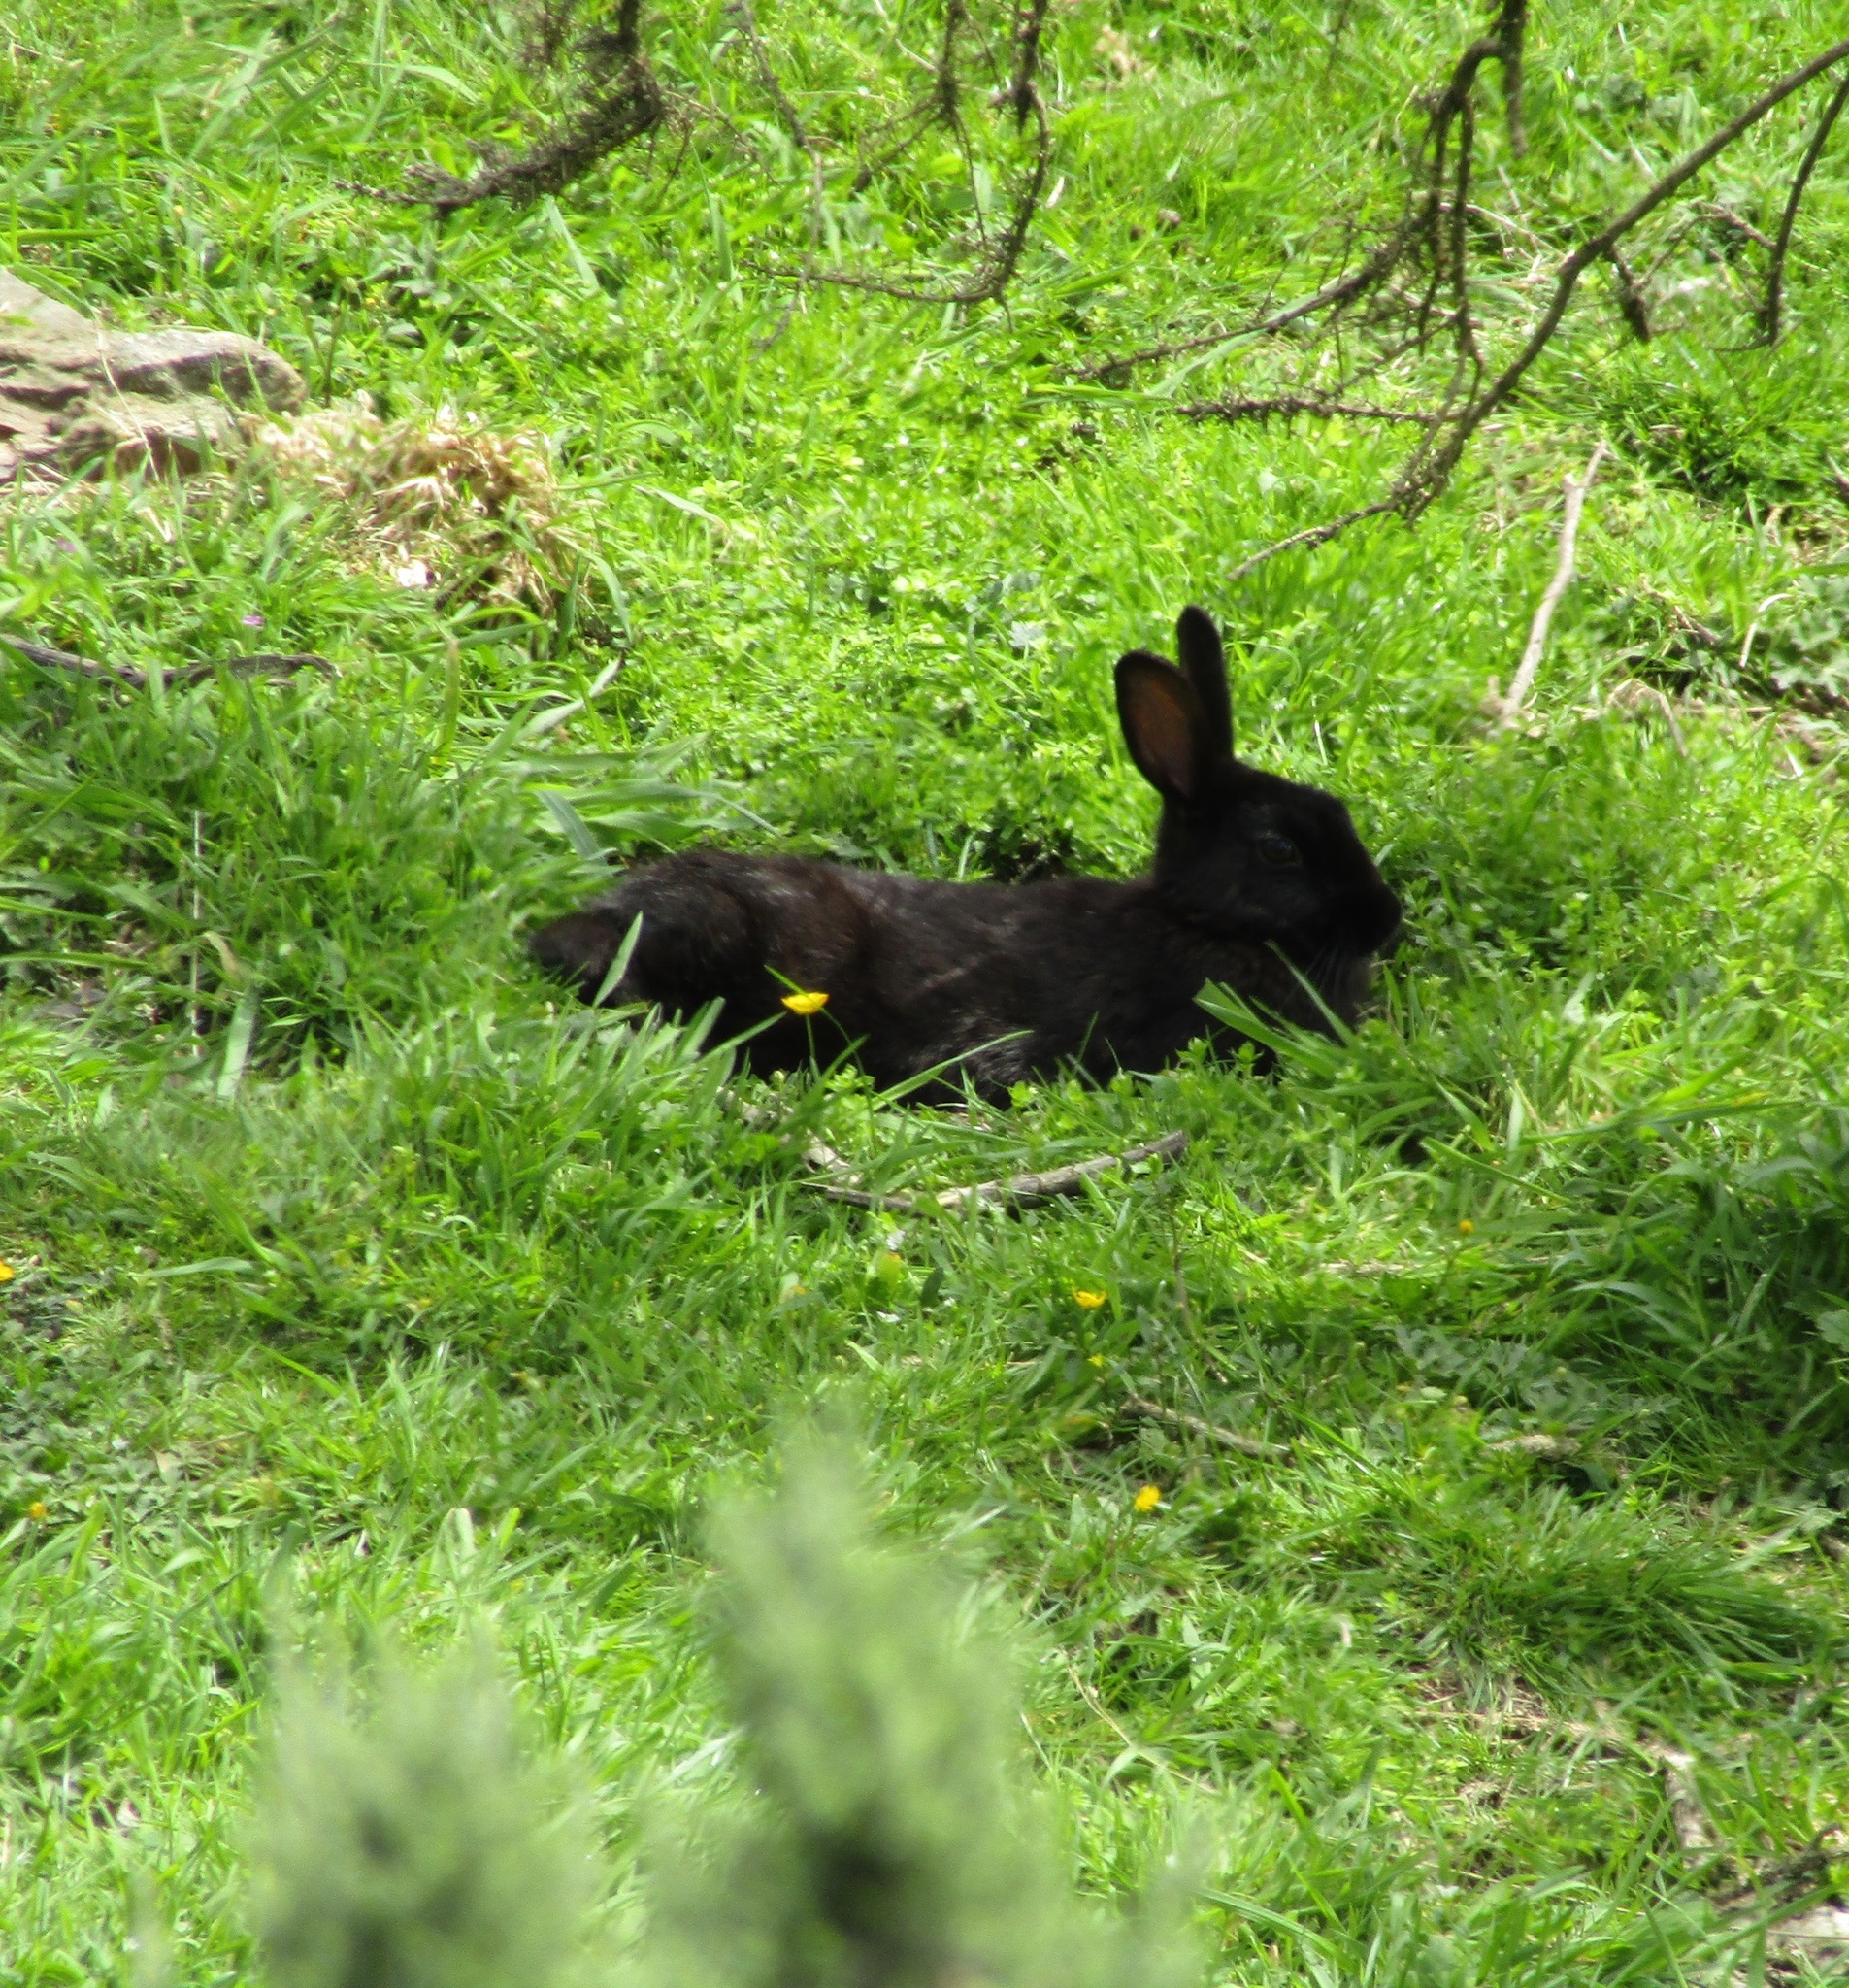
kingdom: Animalia
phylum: Chordata
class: Mammalia
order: Lagomorpha
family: Leporidae
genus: Oryctolagus
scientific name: Oryctolagus cuniculus
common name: European rabbit
